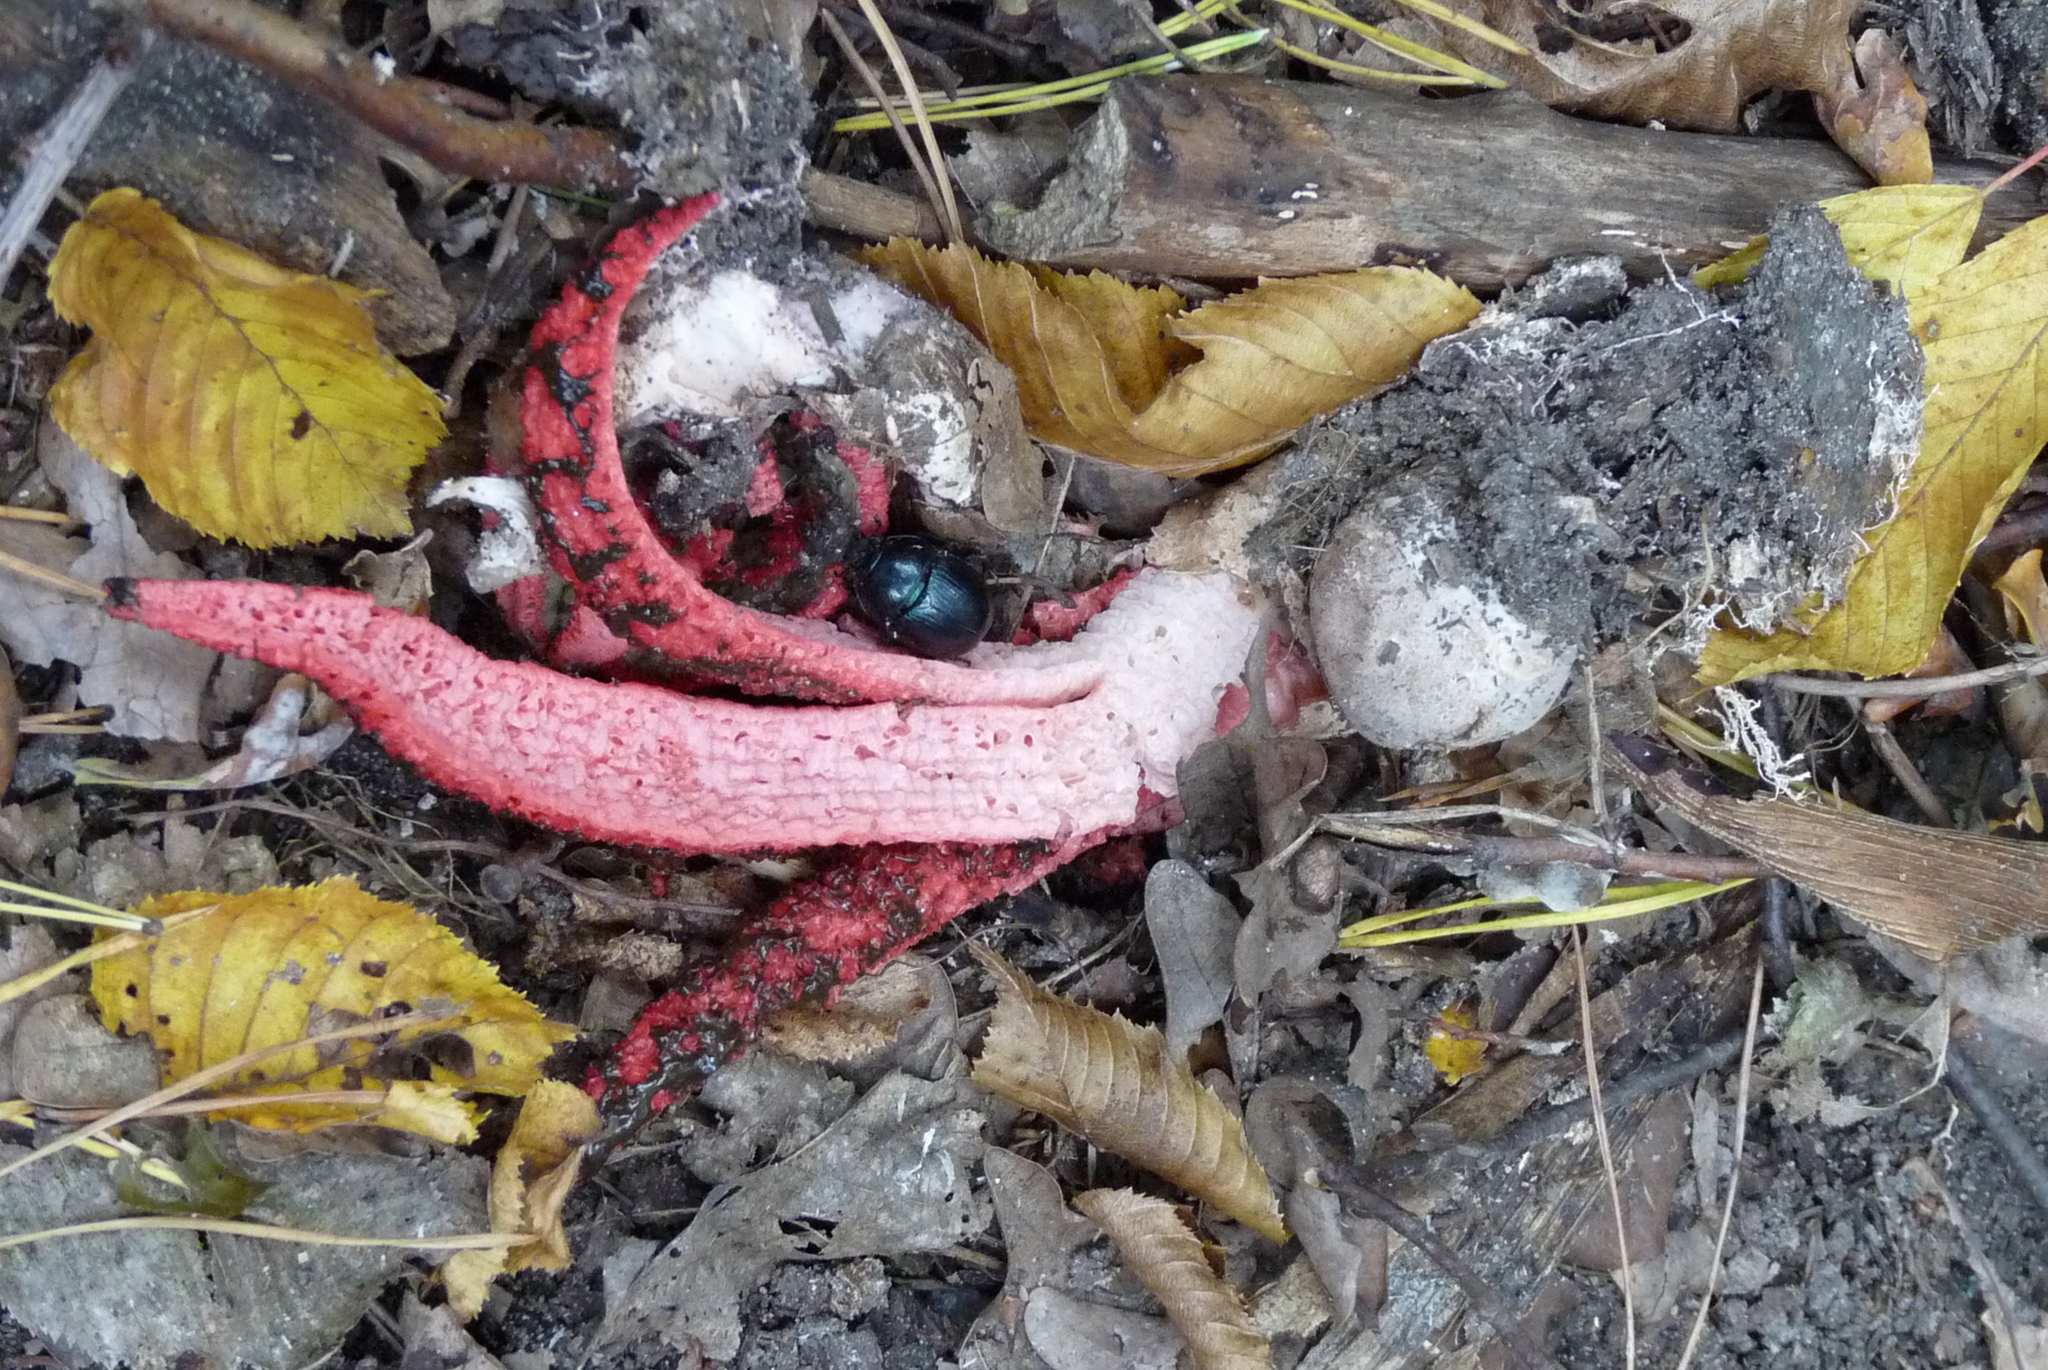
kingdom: Fungi
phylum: Basidiomycota
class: Agaricomycetes
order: Phallales
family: Phallaceae
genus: Clathrus
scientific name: Clathrus archeri
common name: Devil's fingers
